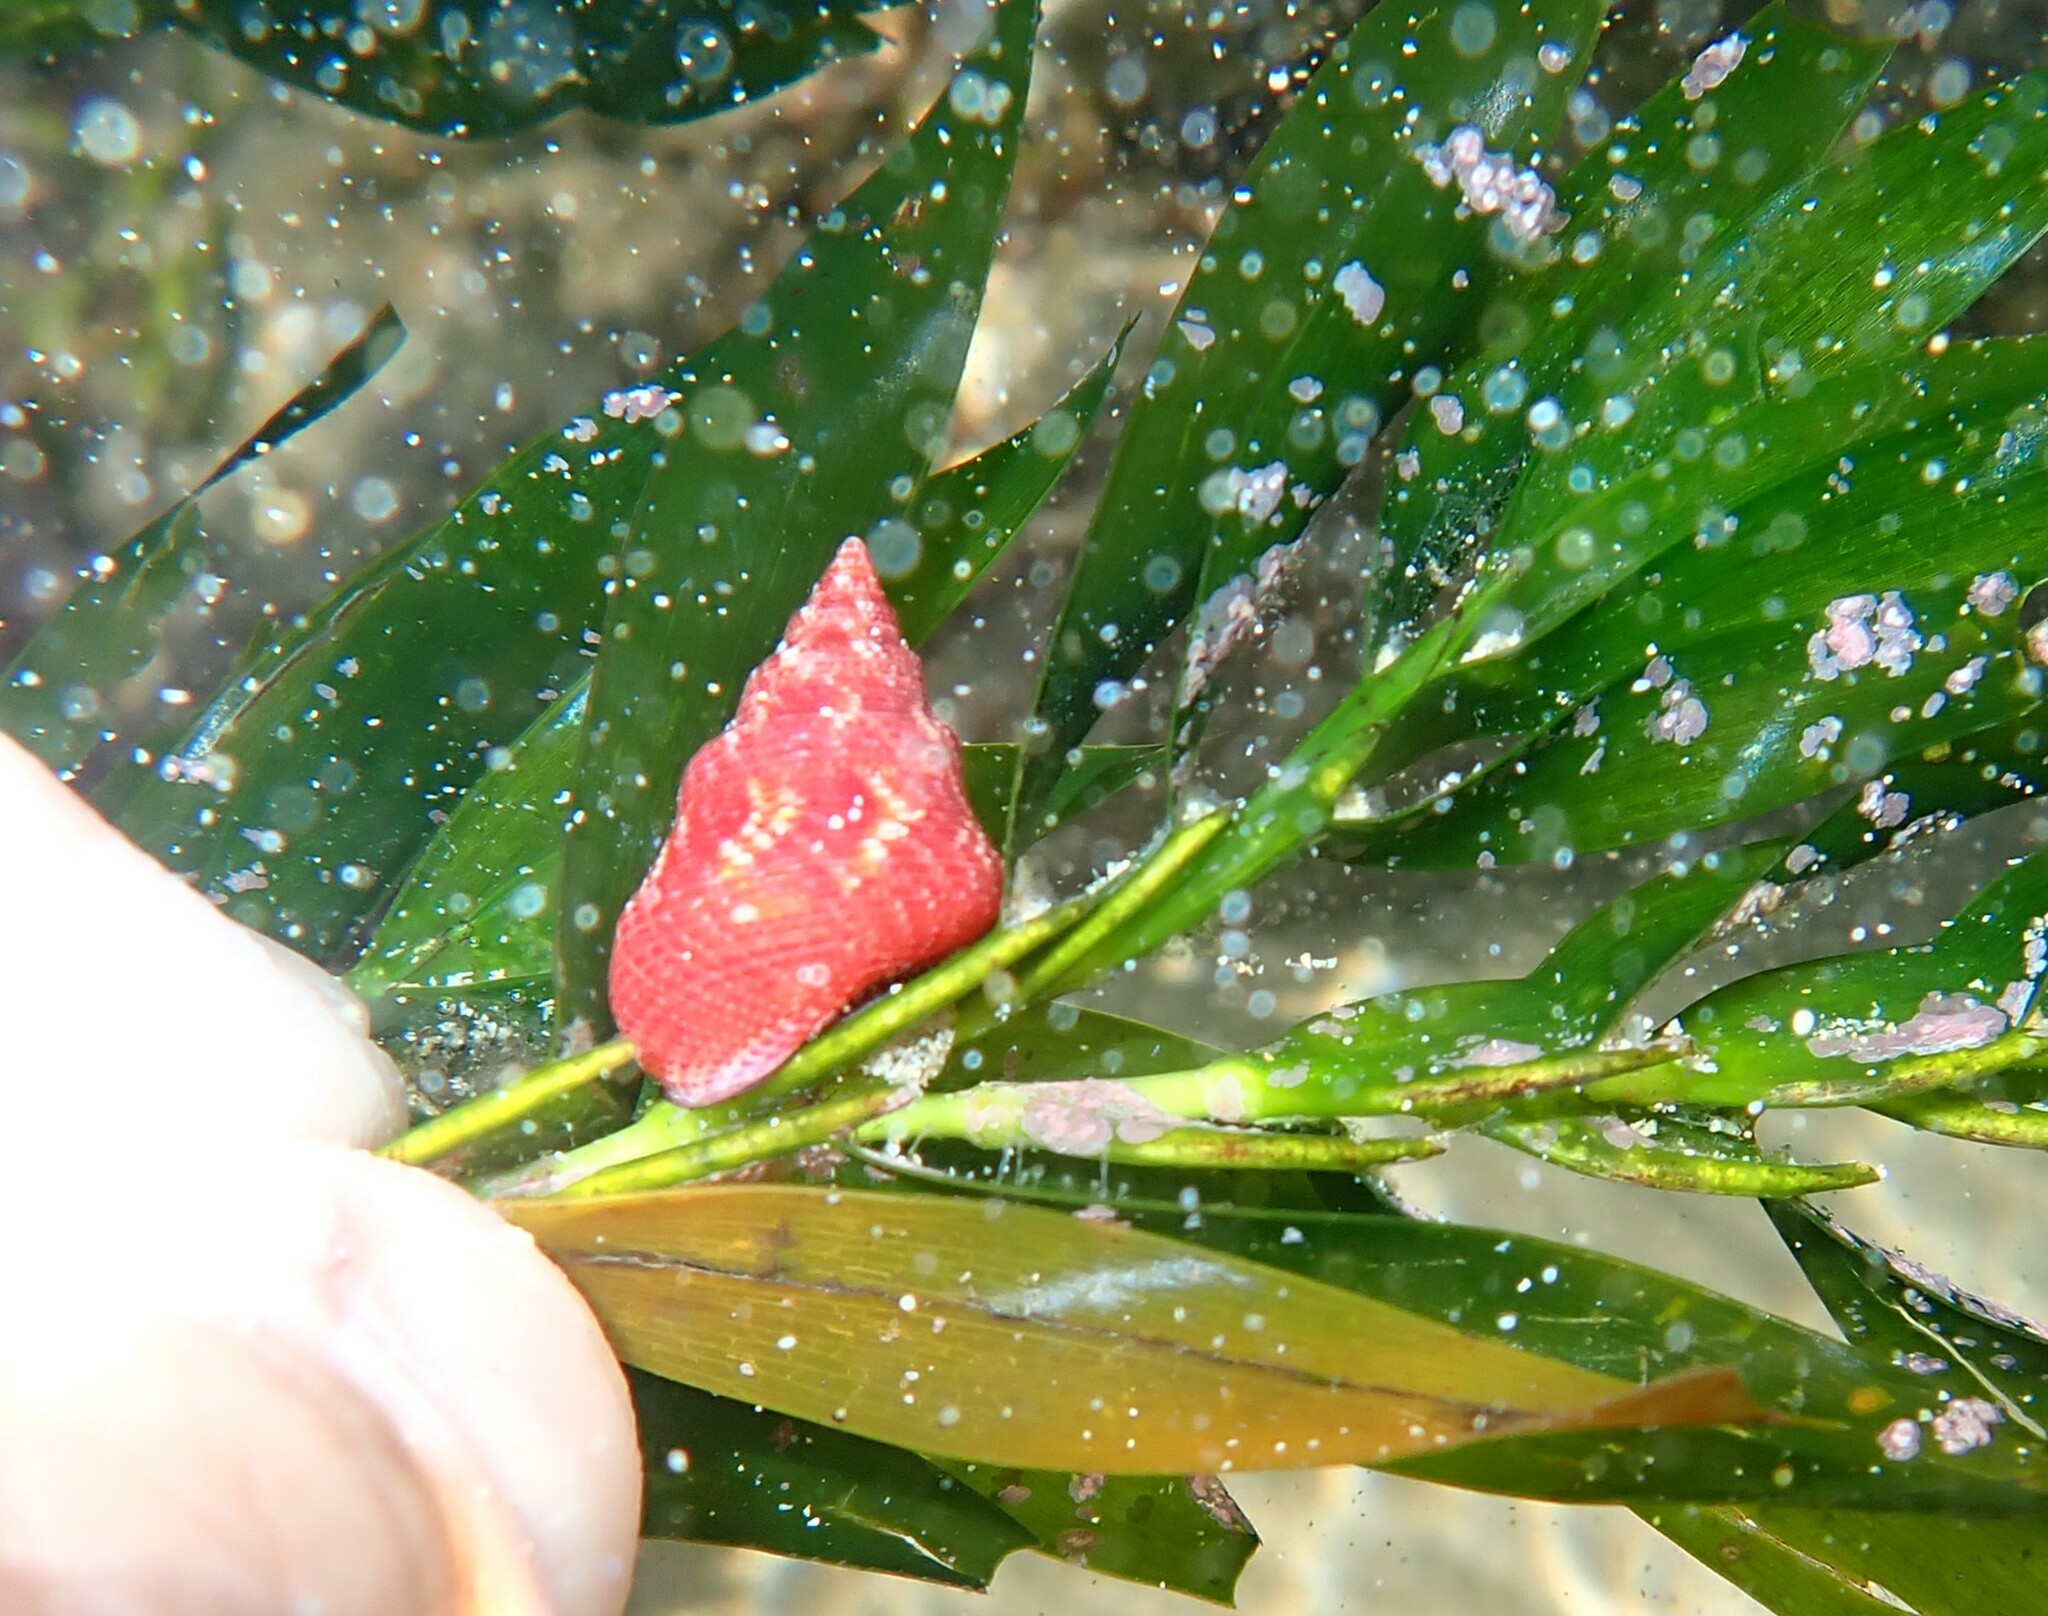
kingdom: Animalia
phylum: Mollusca
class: Gastropoda
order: Trochida
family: Trochidae
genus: Prothalotia
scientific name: Prothalotia ramburi
